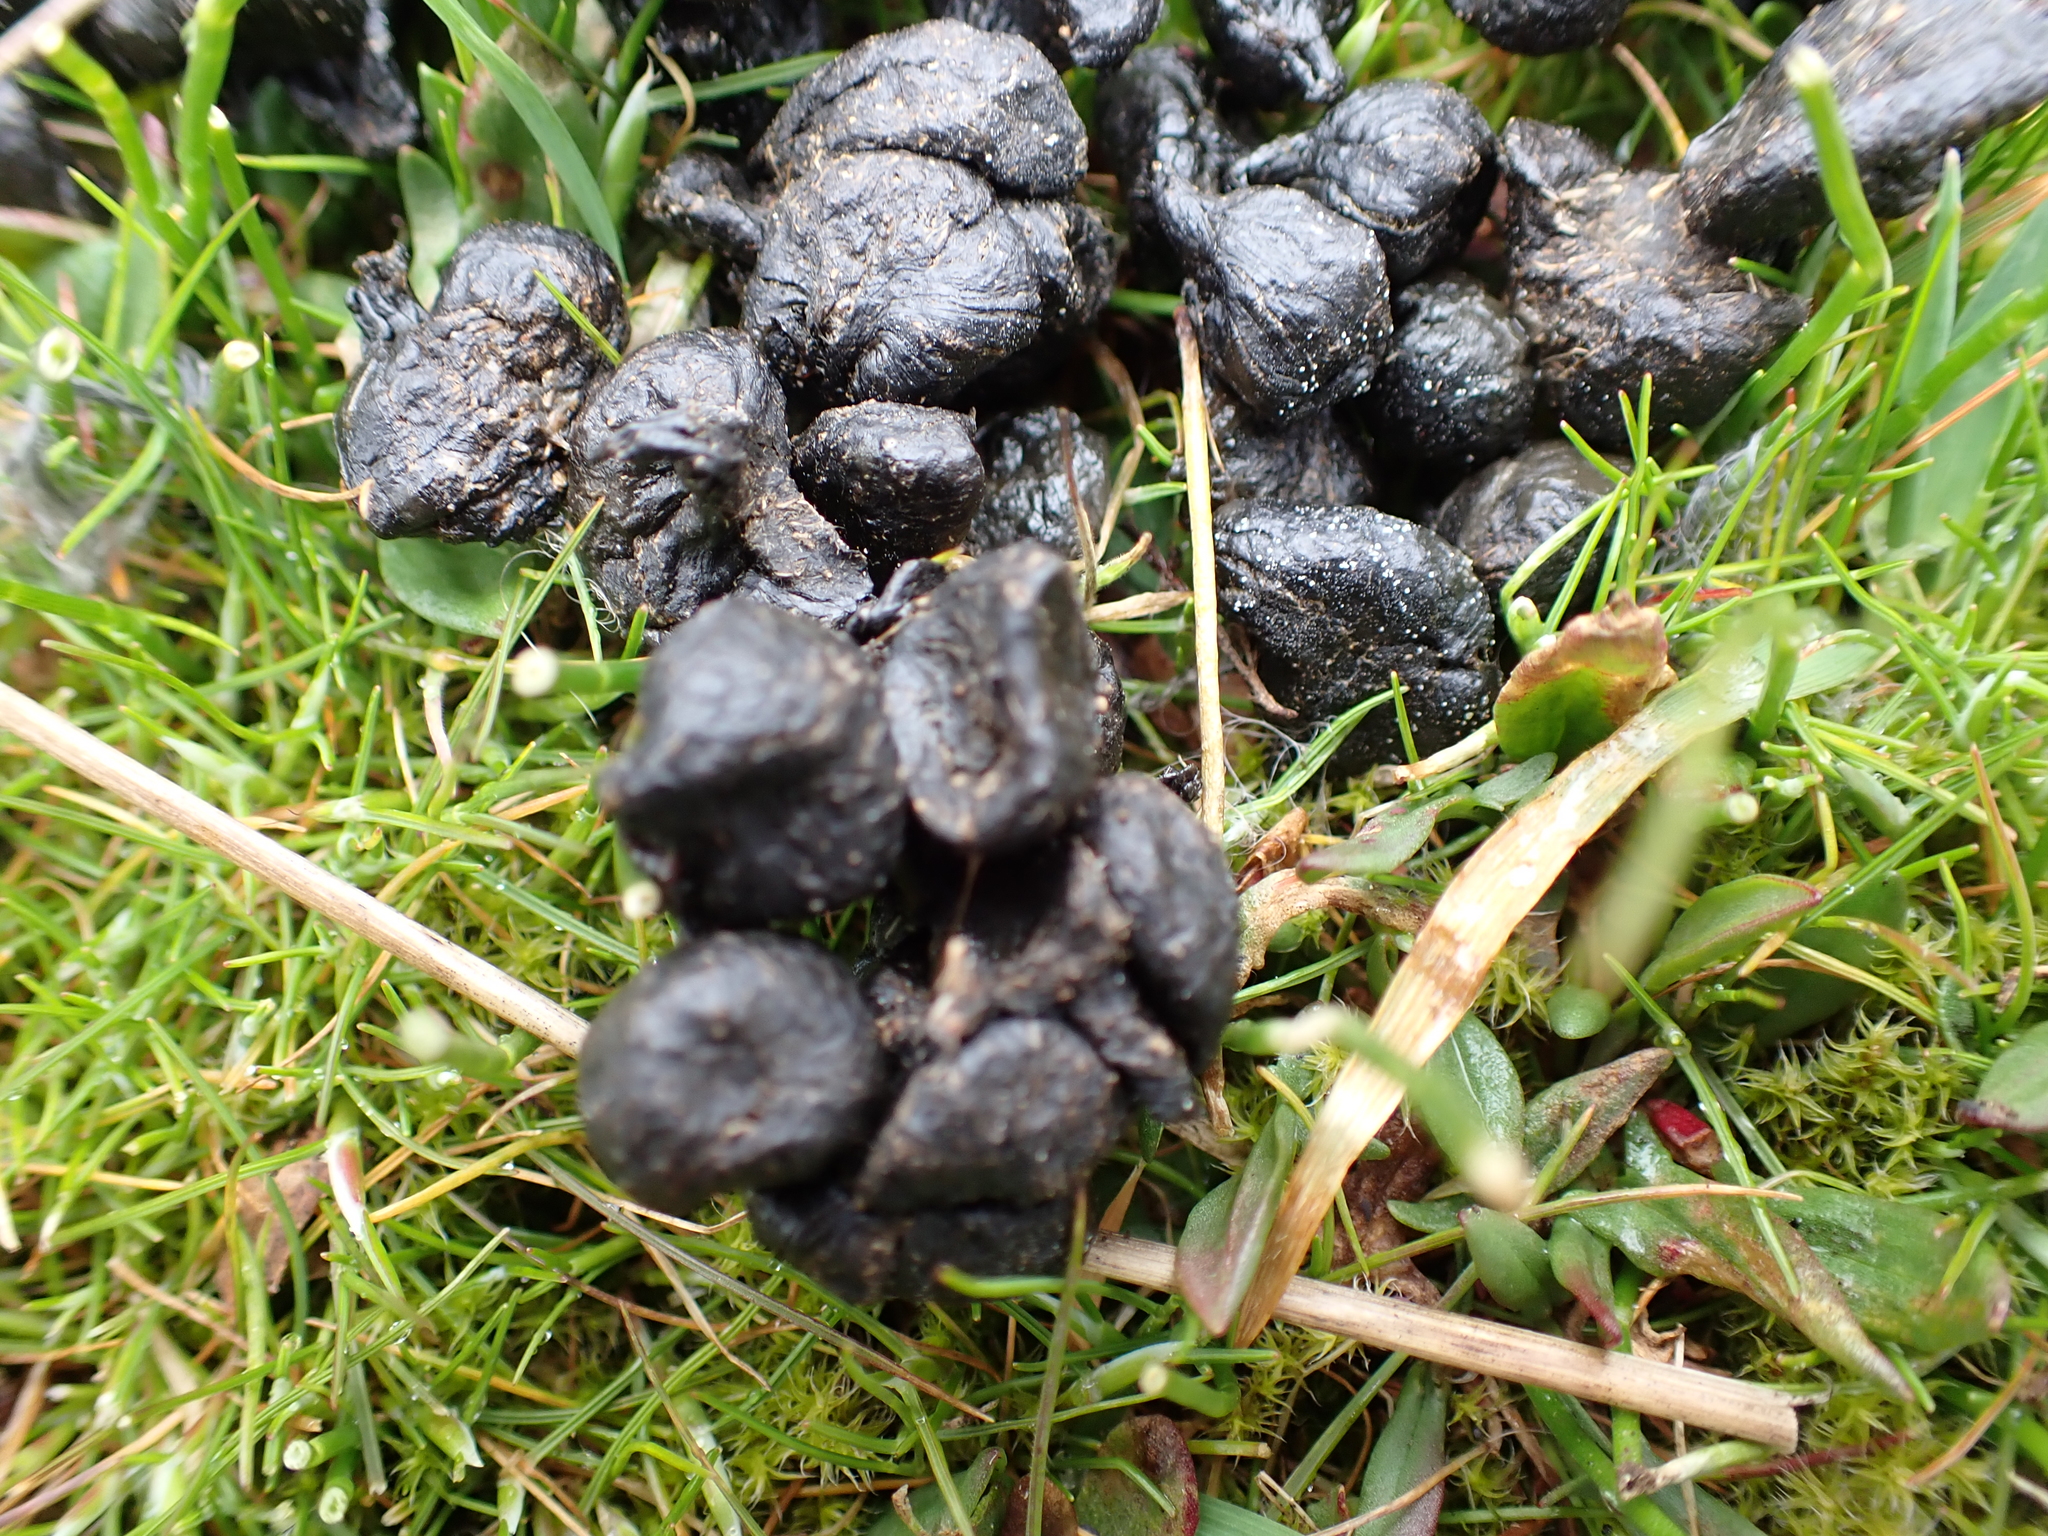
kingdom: Animalia
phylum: Chordata
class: Mammalia
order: Artiodactyla
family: Cervidae
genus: Odocoileus
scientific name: Odocoileus hemionus
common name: Mule deer
